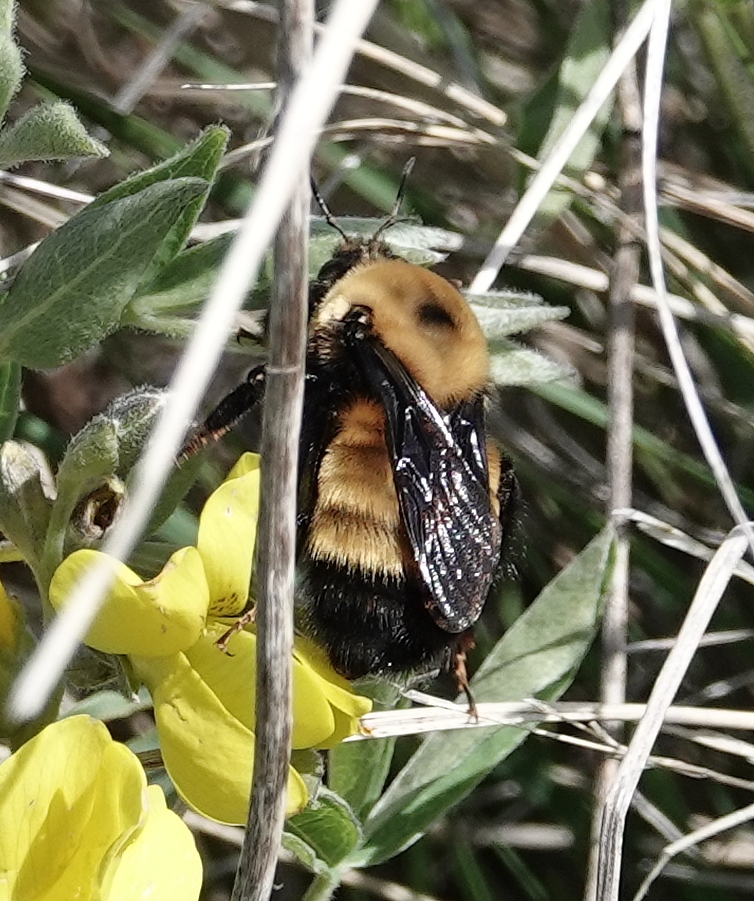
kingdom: Animalia
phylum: Arthropoda
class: Insecta
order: Hymenoptera
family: Apidae
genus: Bombus
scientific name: Bombus nevadensis
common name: Nevada bumble bee
